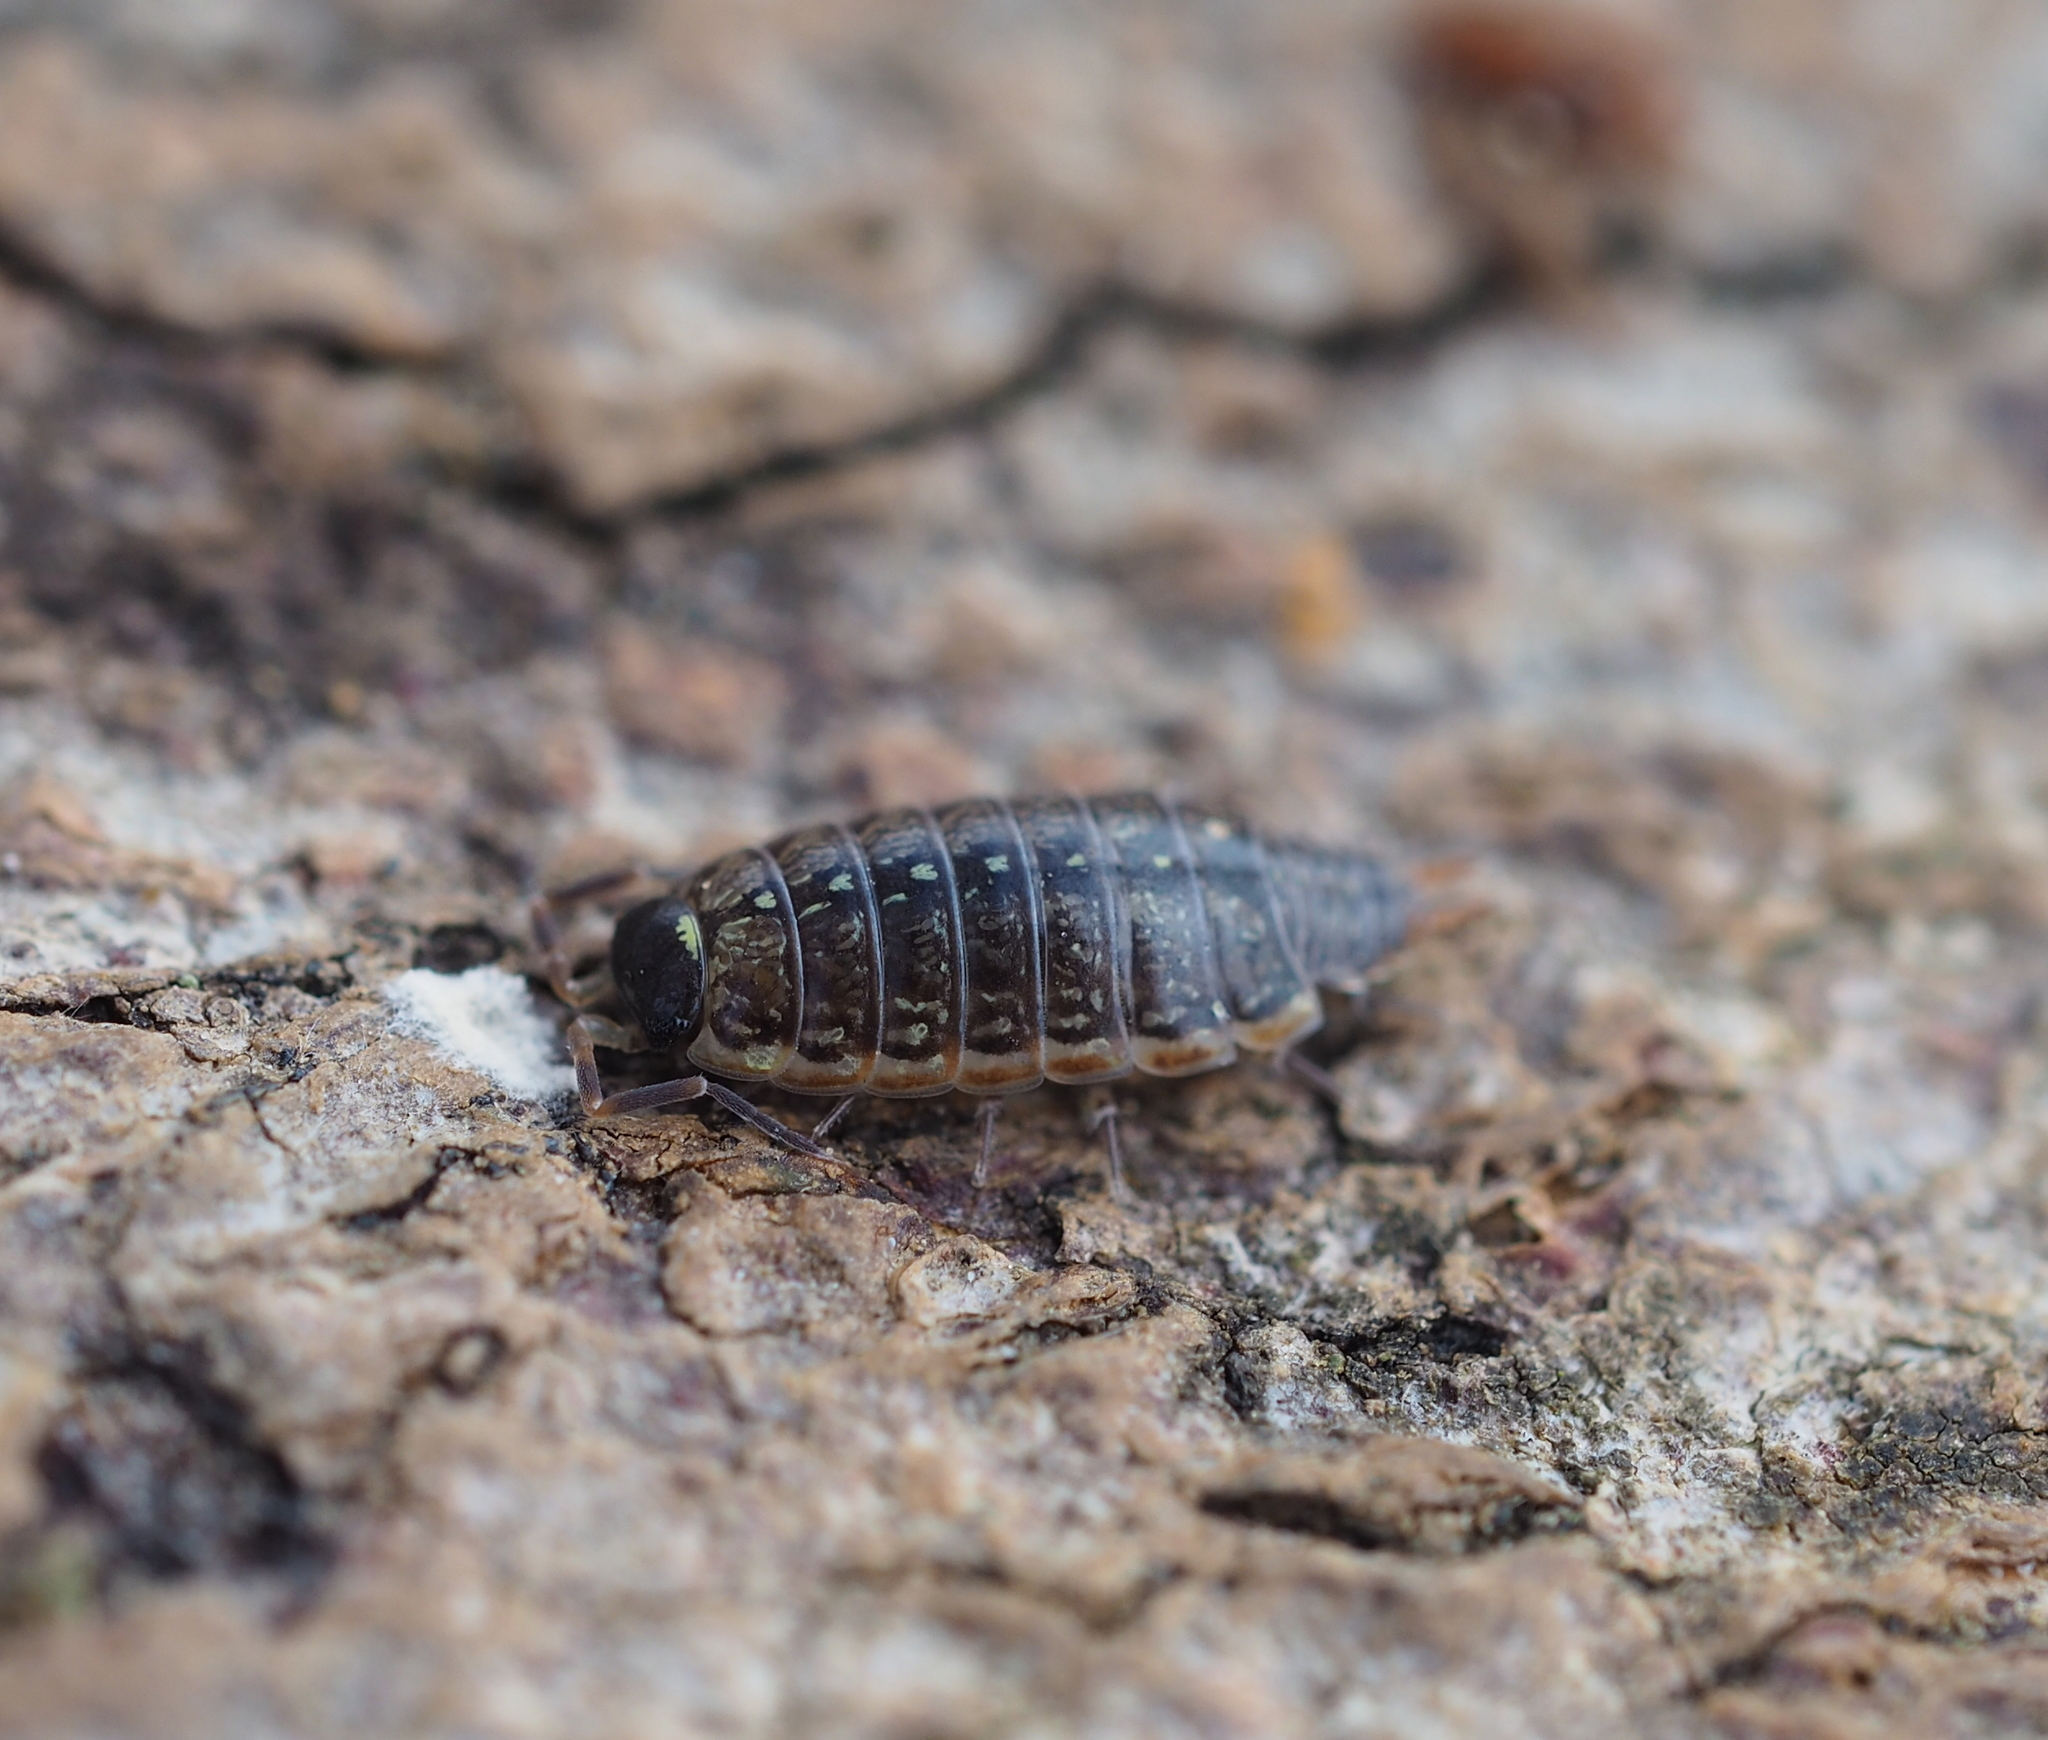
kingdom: Animalia
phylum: Arthropoda
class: Malacostraca
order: Isopoda
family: Philosciidae
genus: Philoscia
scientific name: Philoscia muscorum
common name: Common striped woodlouse
